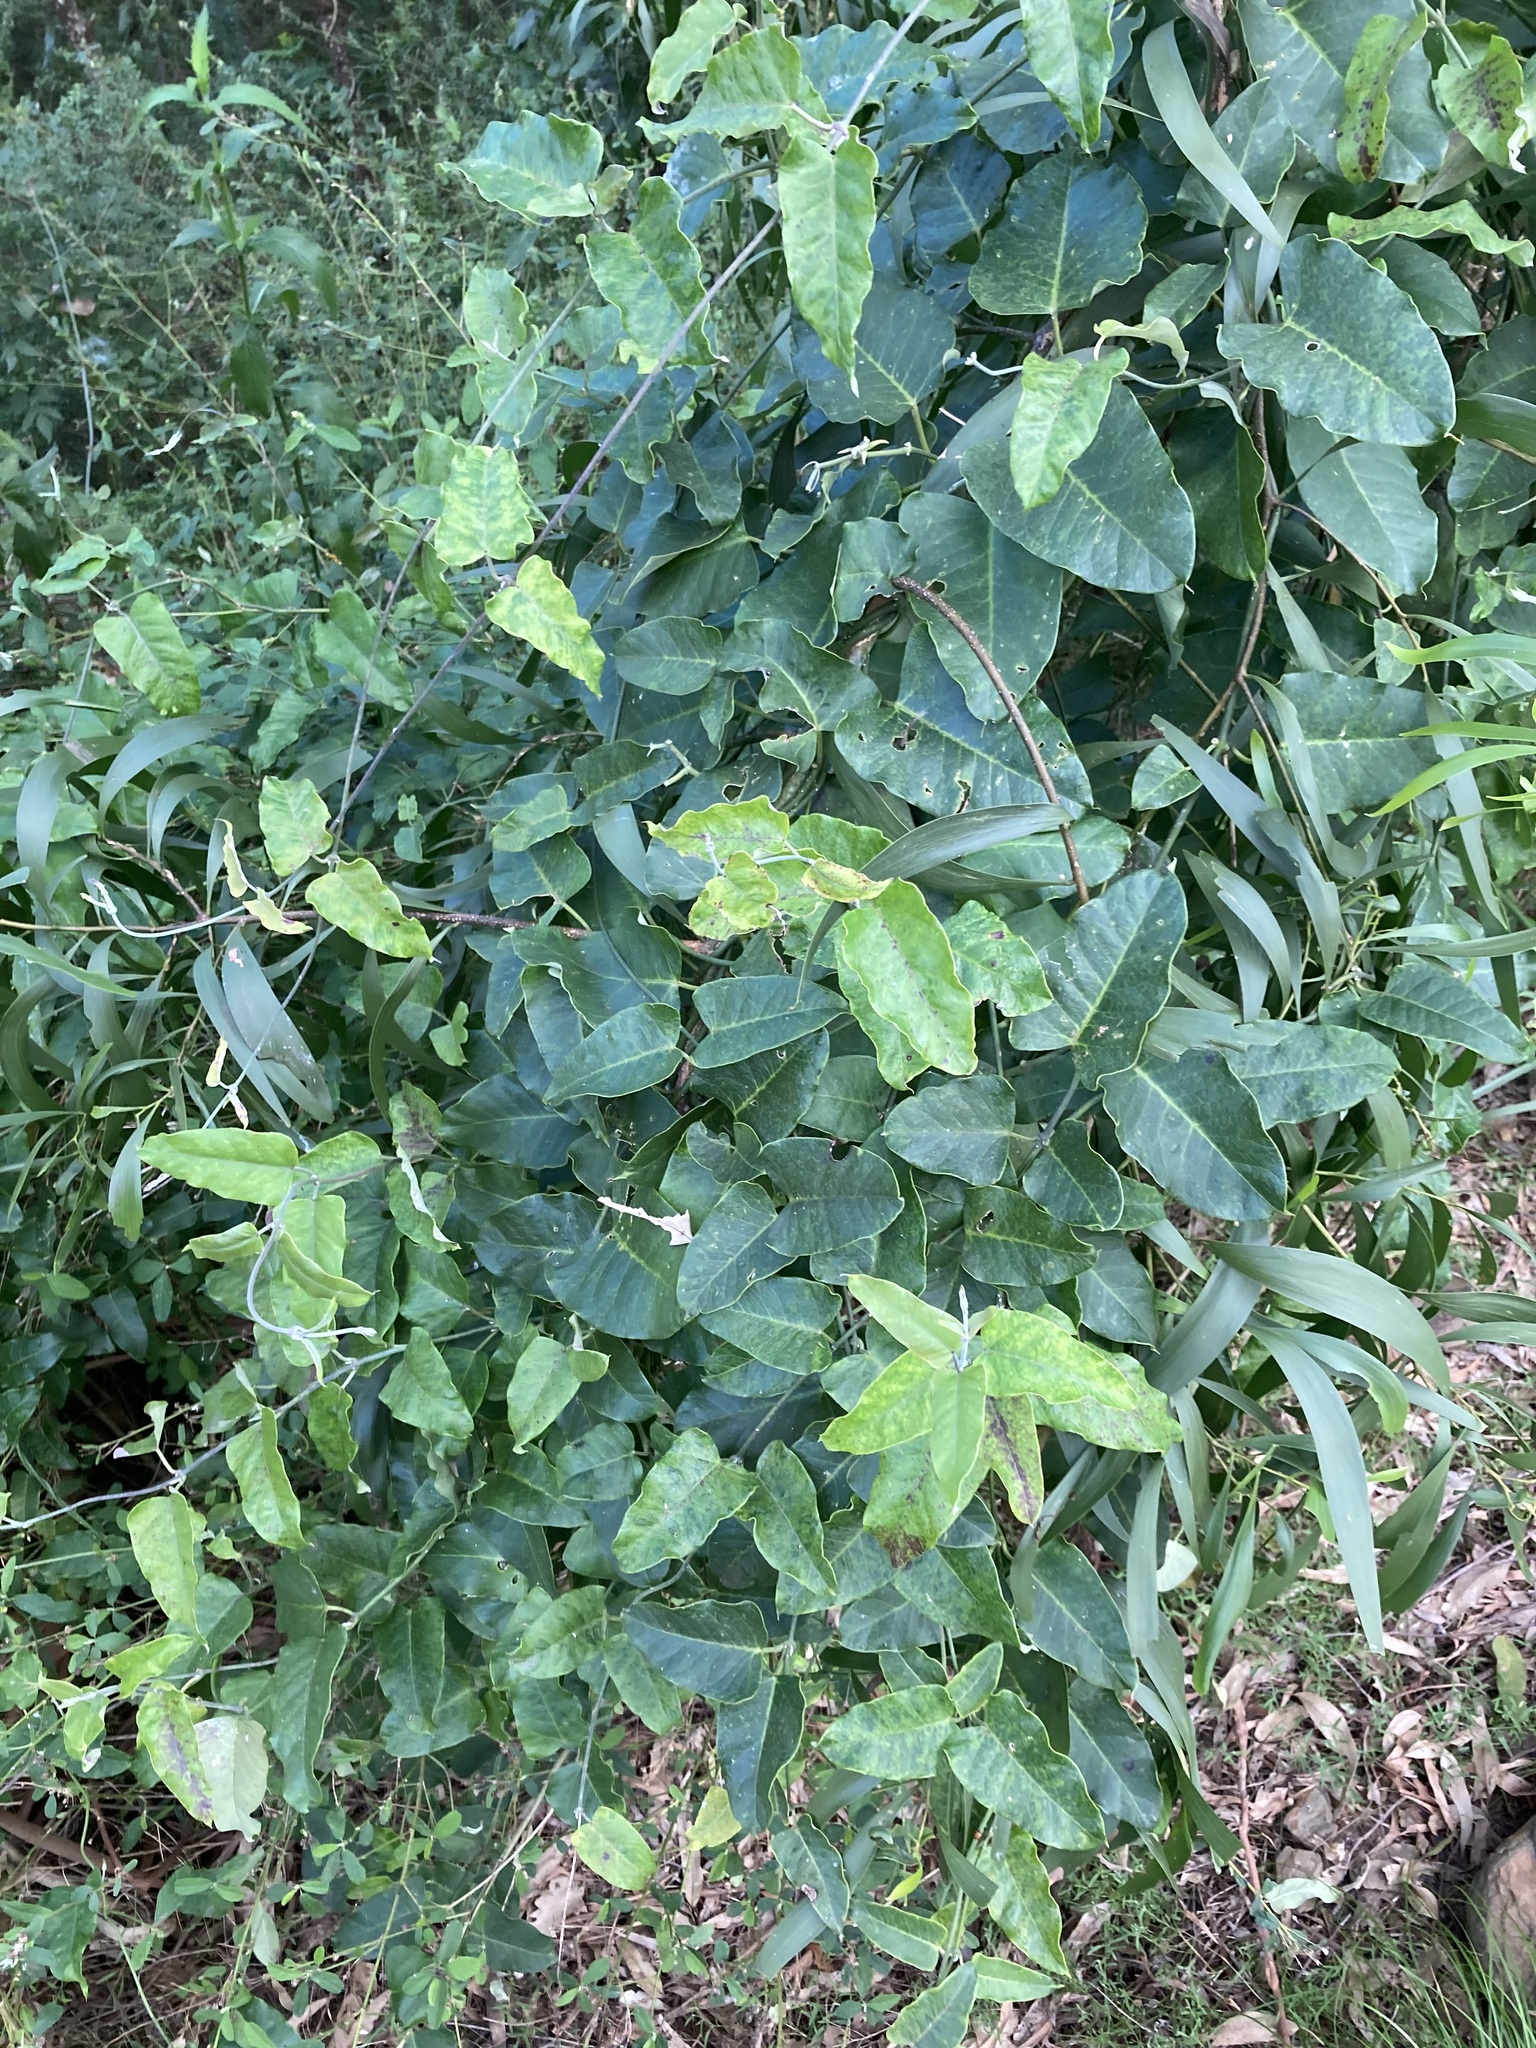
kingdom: Plantae
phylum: Tracheophyta
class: Magnoliopsida
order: Gentianales
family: Apocynaceae
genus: Araujia
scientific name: Araujia sericifera
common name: White bladderflower
